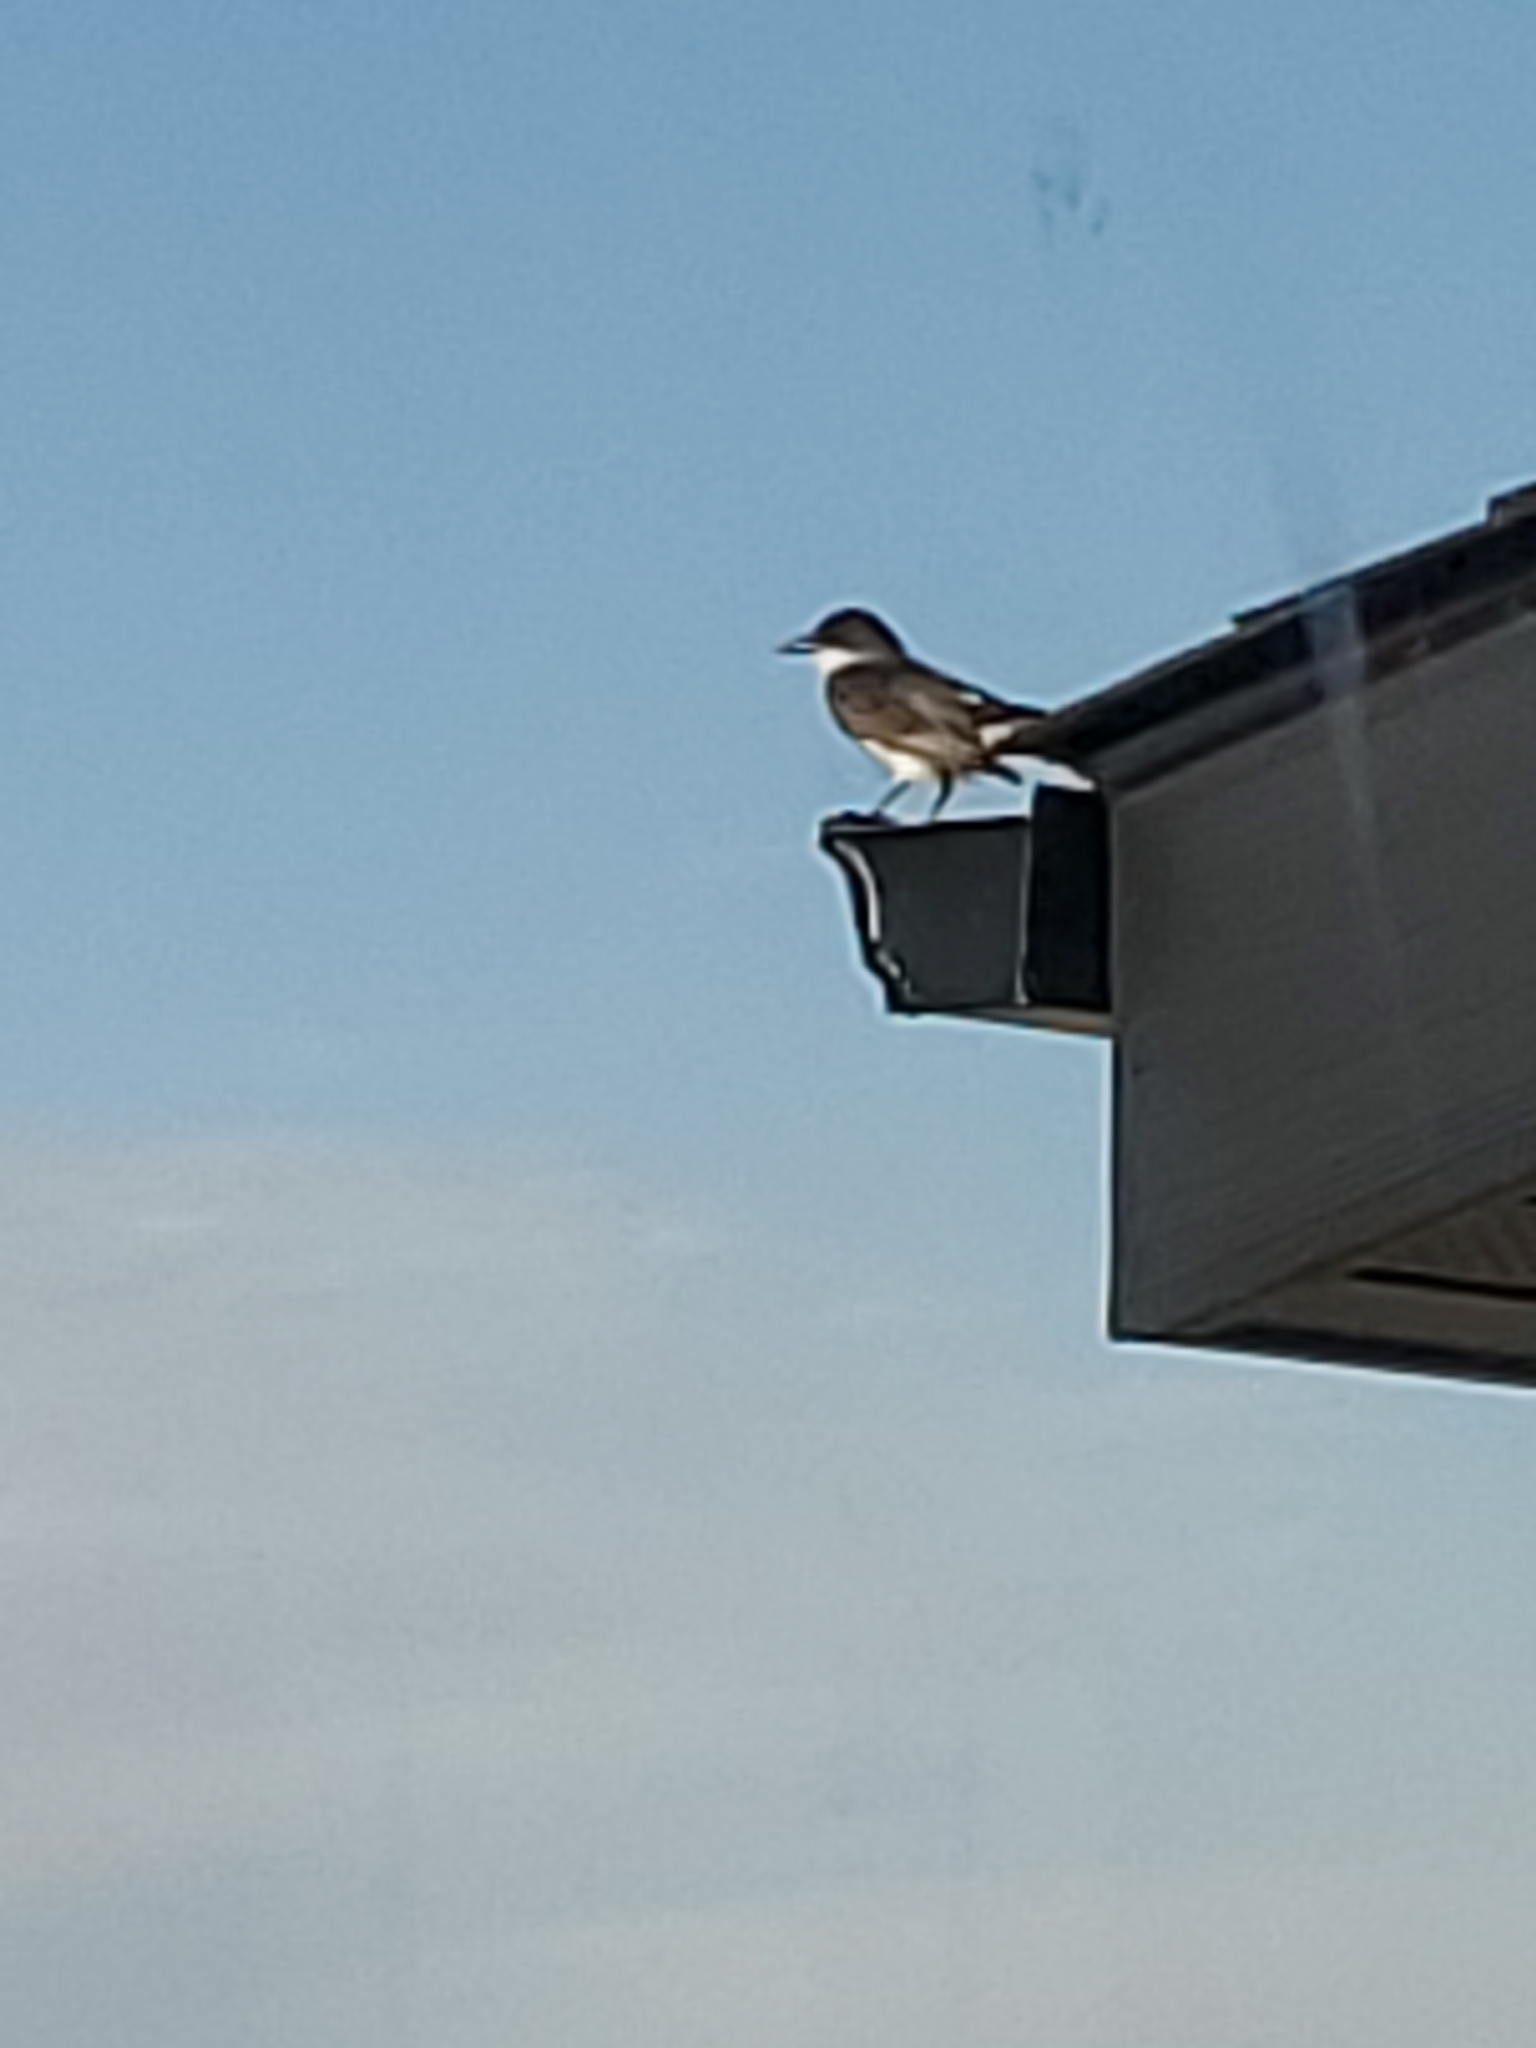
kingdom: Animalia
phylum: Chordata
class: Aves
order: Passeriformes
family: Tyrannidae
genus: Tyrannus
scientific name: Tyrannus tyrannus
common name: Eastern kingbird
